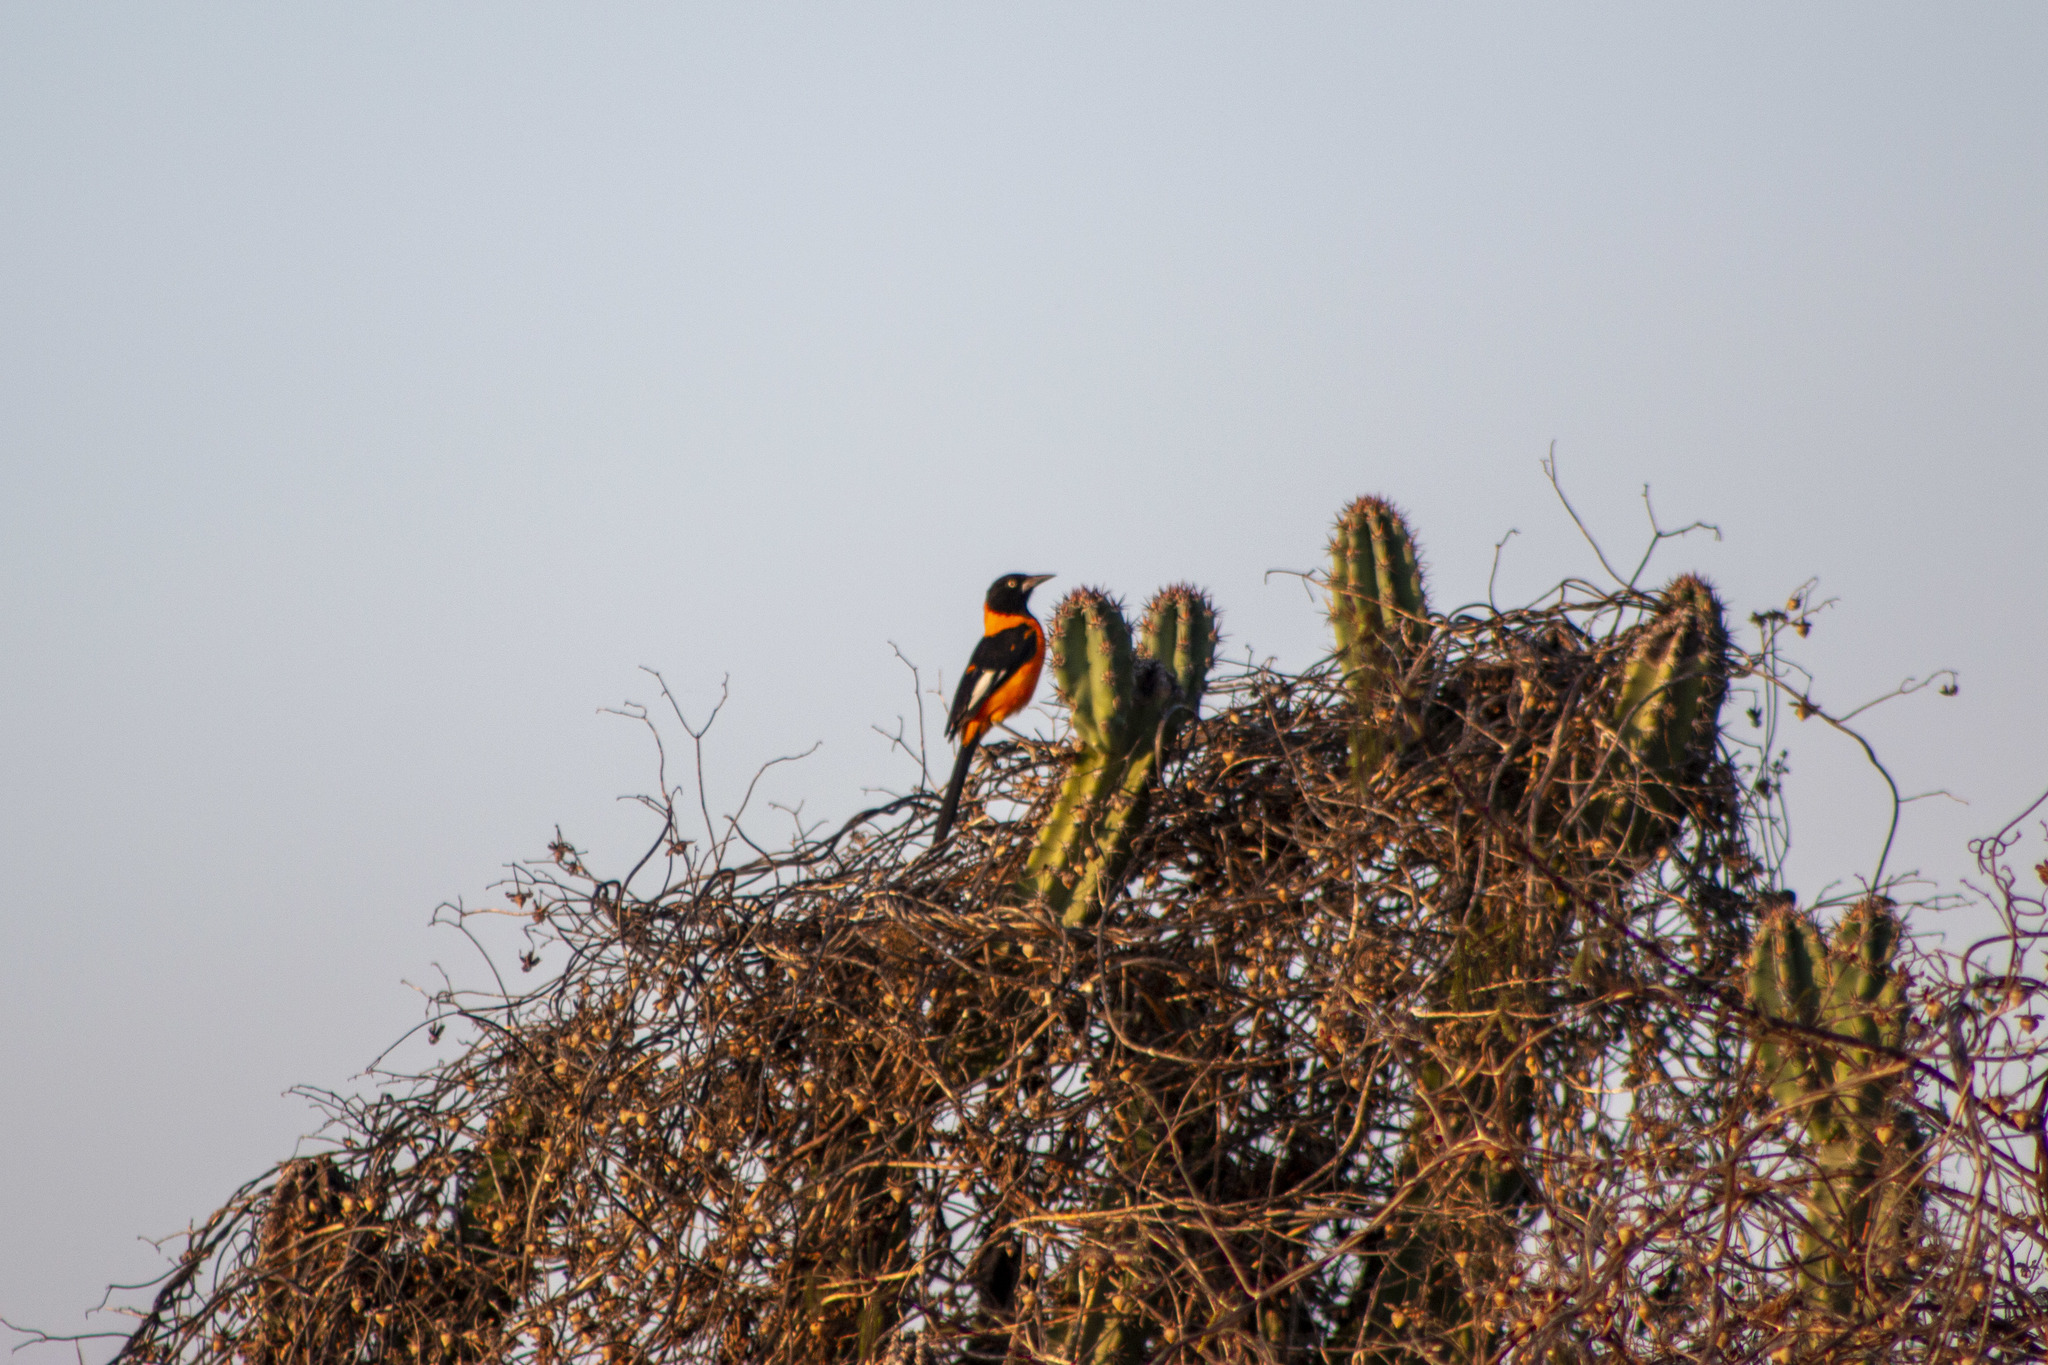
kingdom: Animalia
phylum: Chordata
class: Aves
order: Passeriformes
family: Icteridae
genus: Icterus
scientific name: Icterus icterus
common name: Venezuelan troupial
